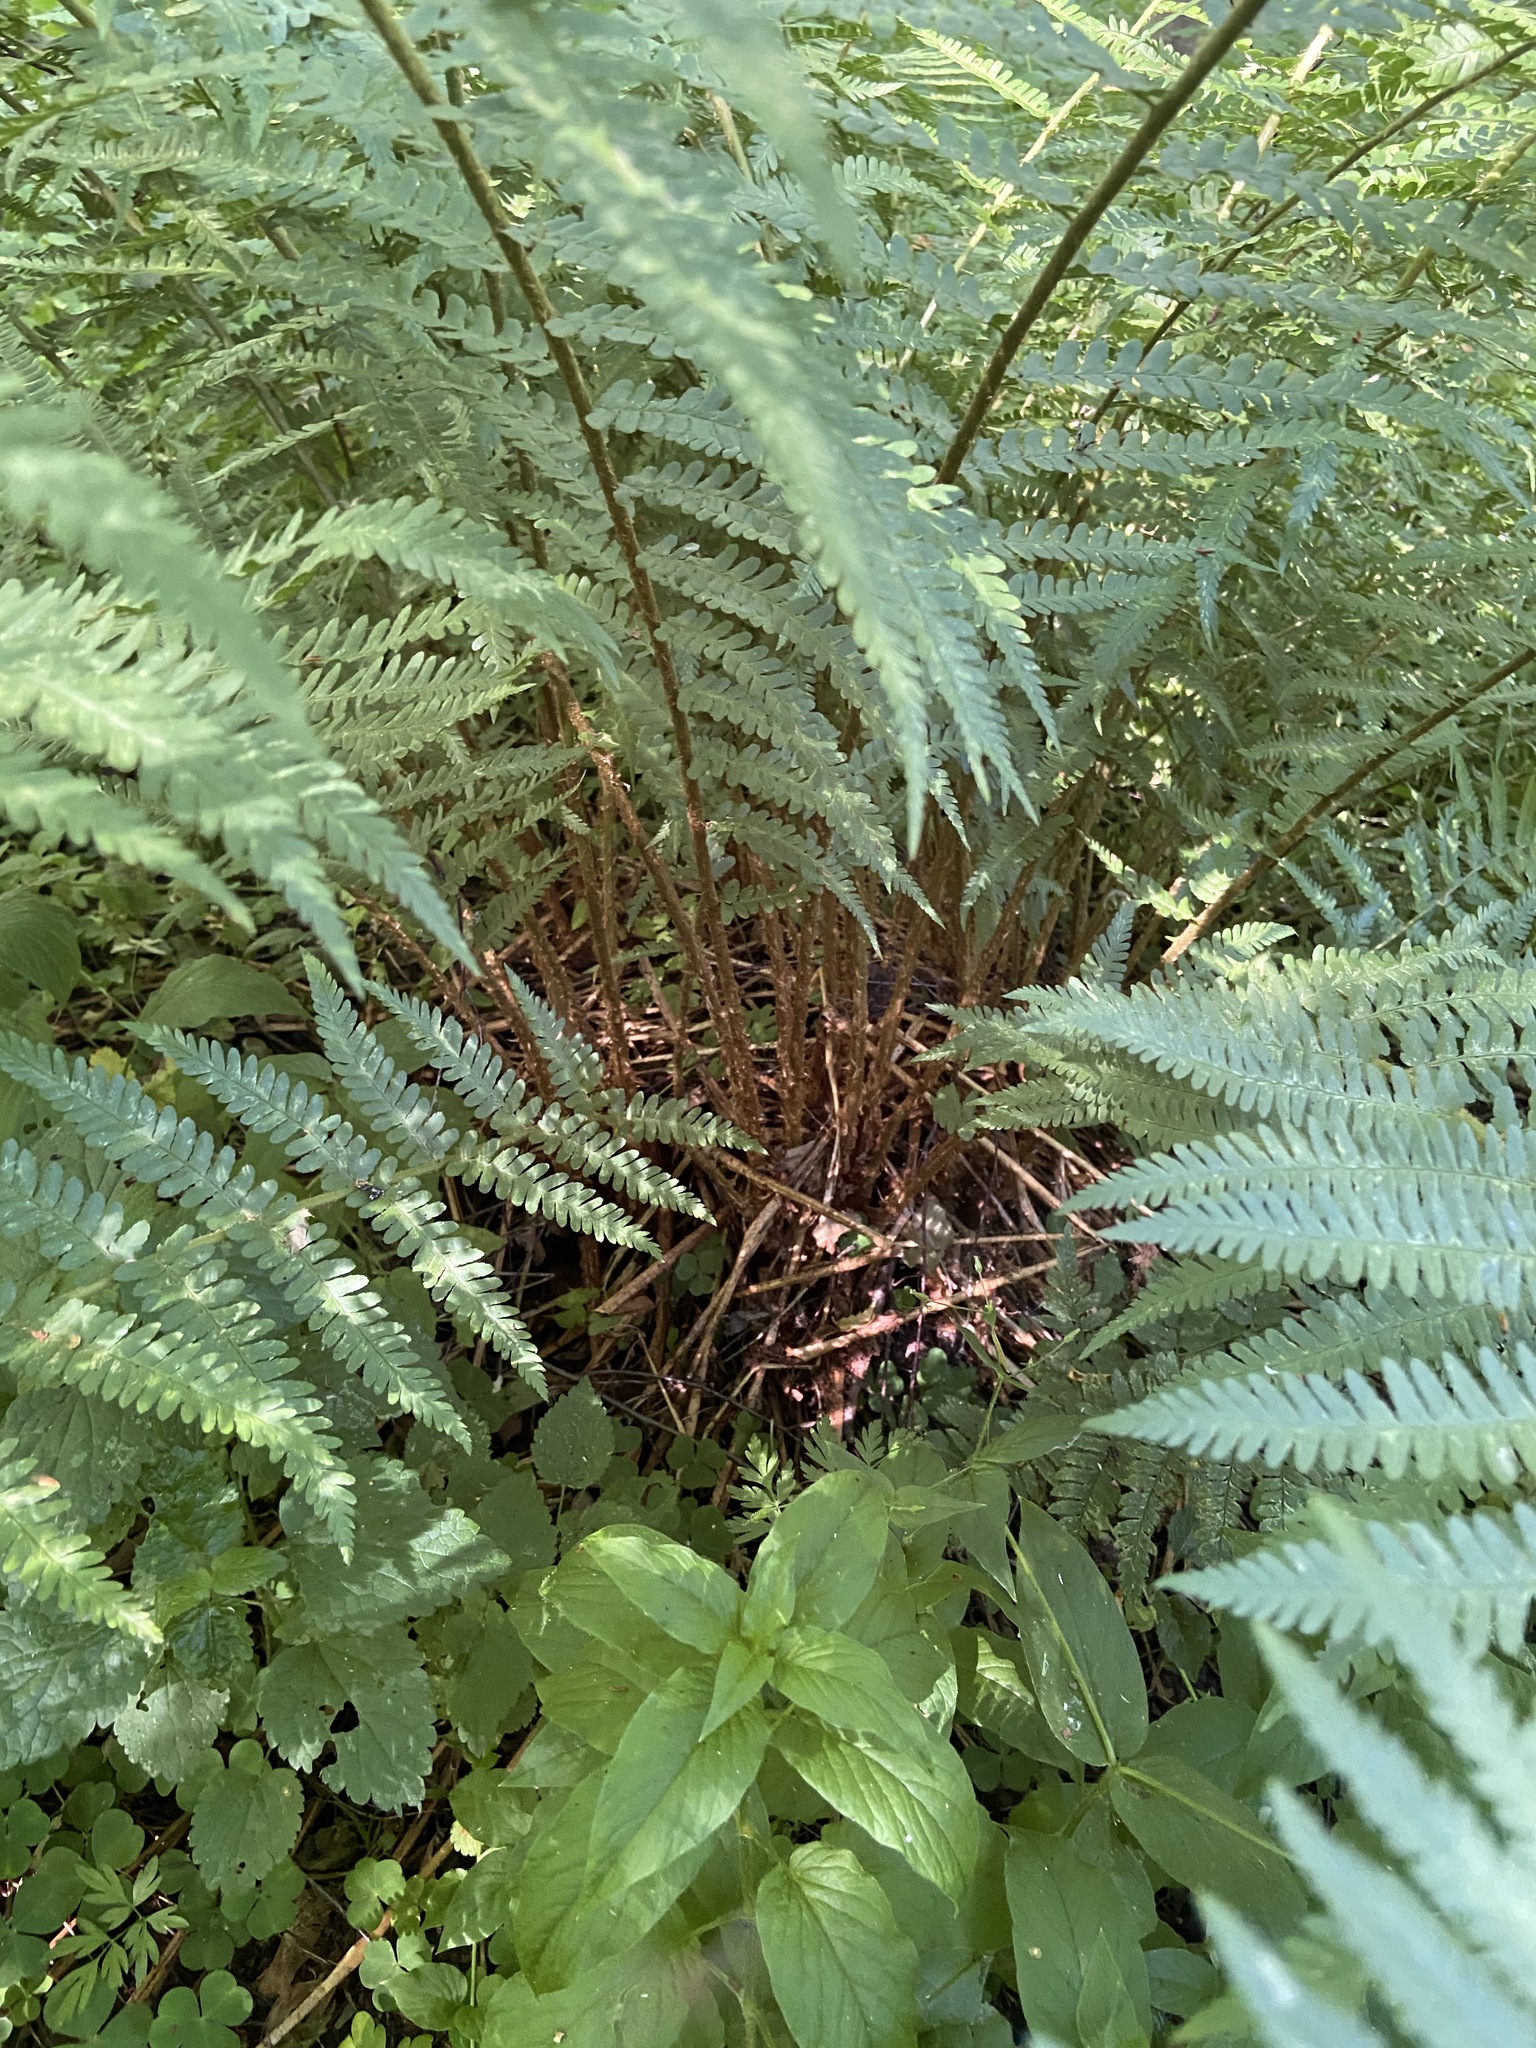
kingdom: Plantae
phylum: Tracheophyta
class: Polypodiopsida
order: Polypodiales
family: Dryopteridaceae
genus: Dryopteris
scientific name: Dryopteris filix-mas
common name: Male fern
